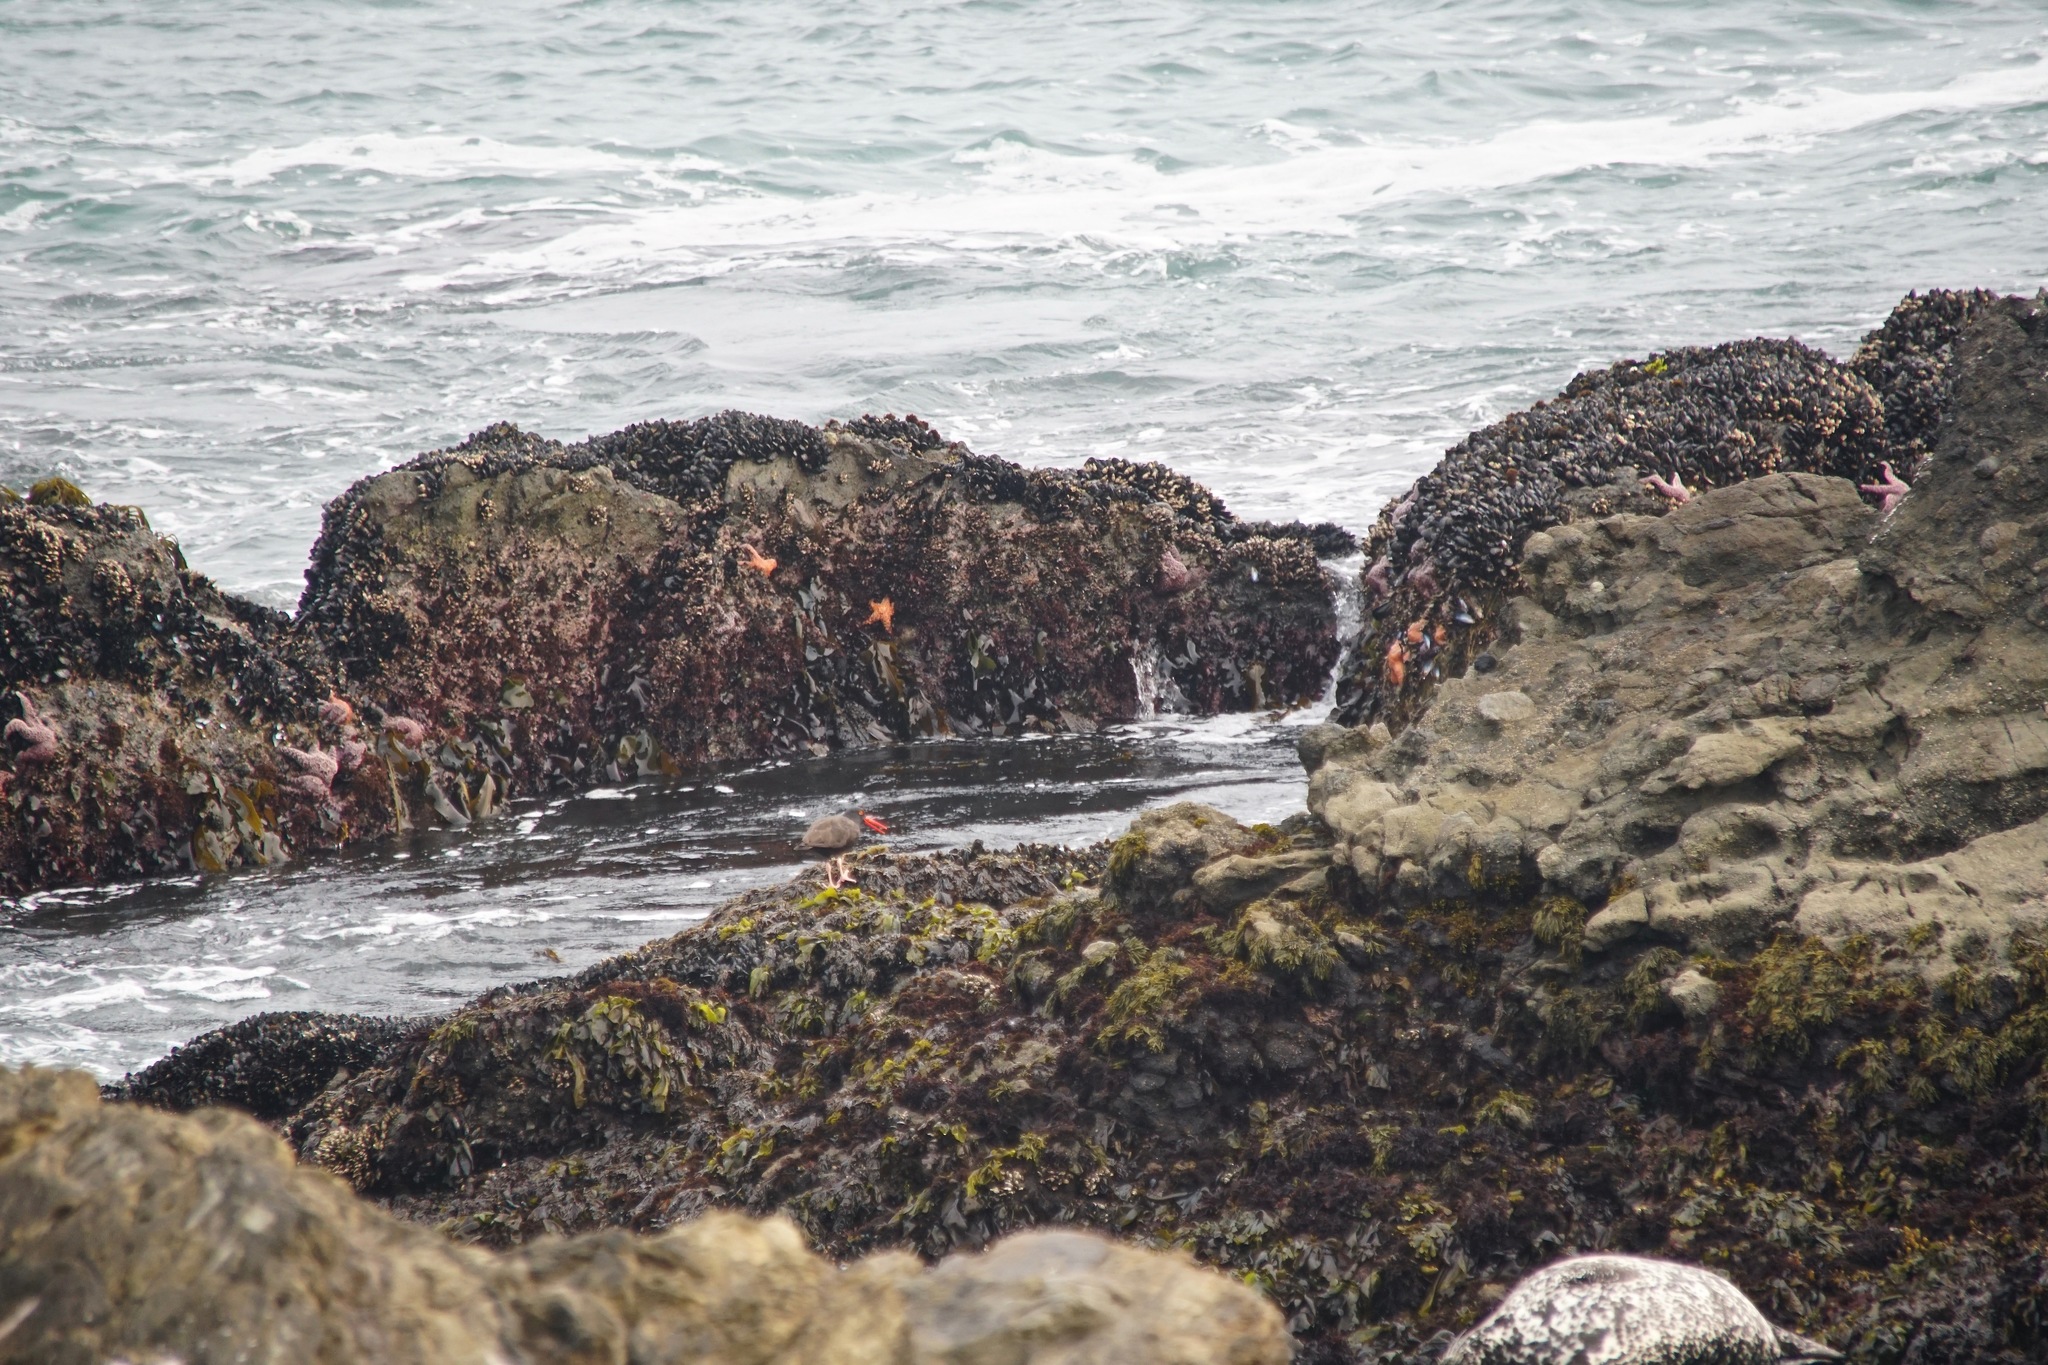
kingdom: Animalia
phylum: Echinodermata
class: Asteroidea
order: Forcipulatida
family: Asteriidae
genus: Pisaster
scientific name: Pisaster ochraceus
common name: Ochre stars
